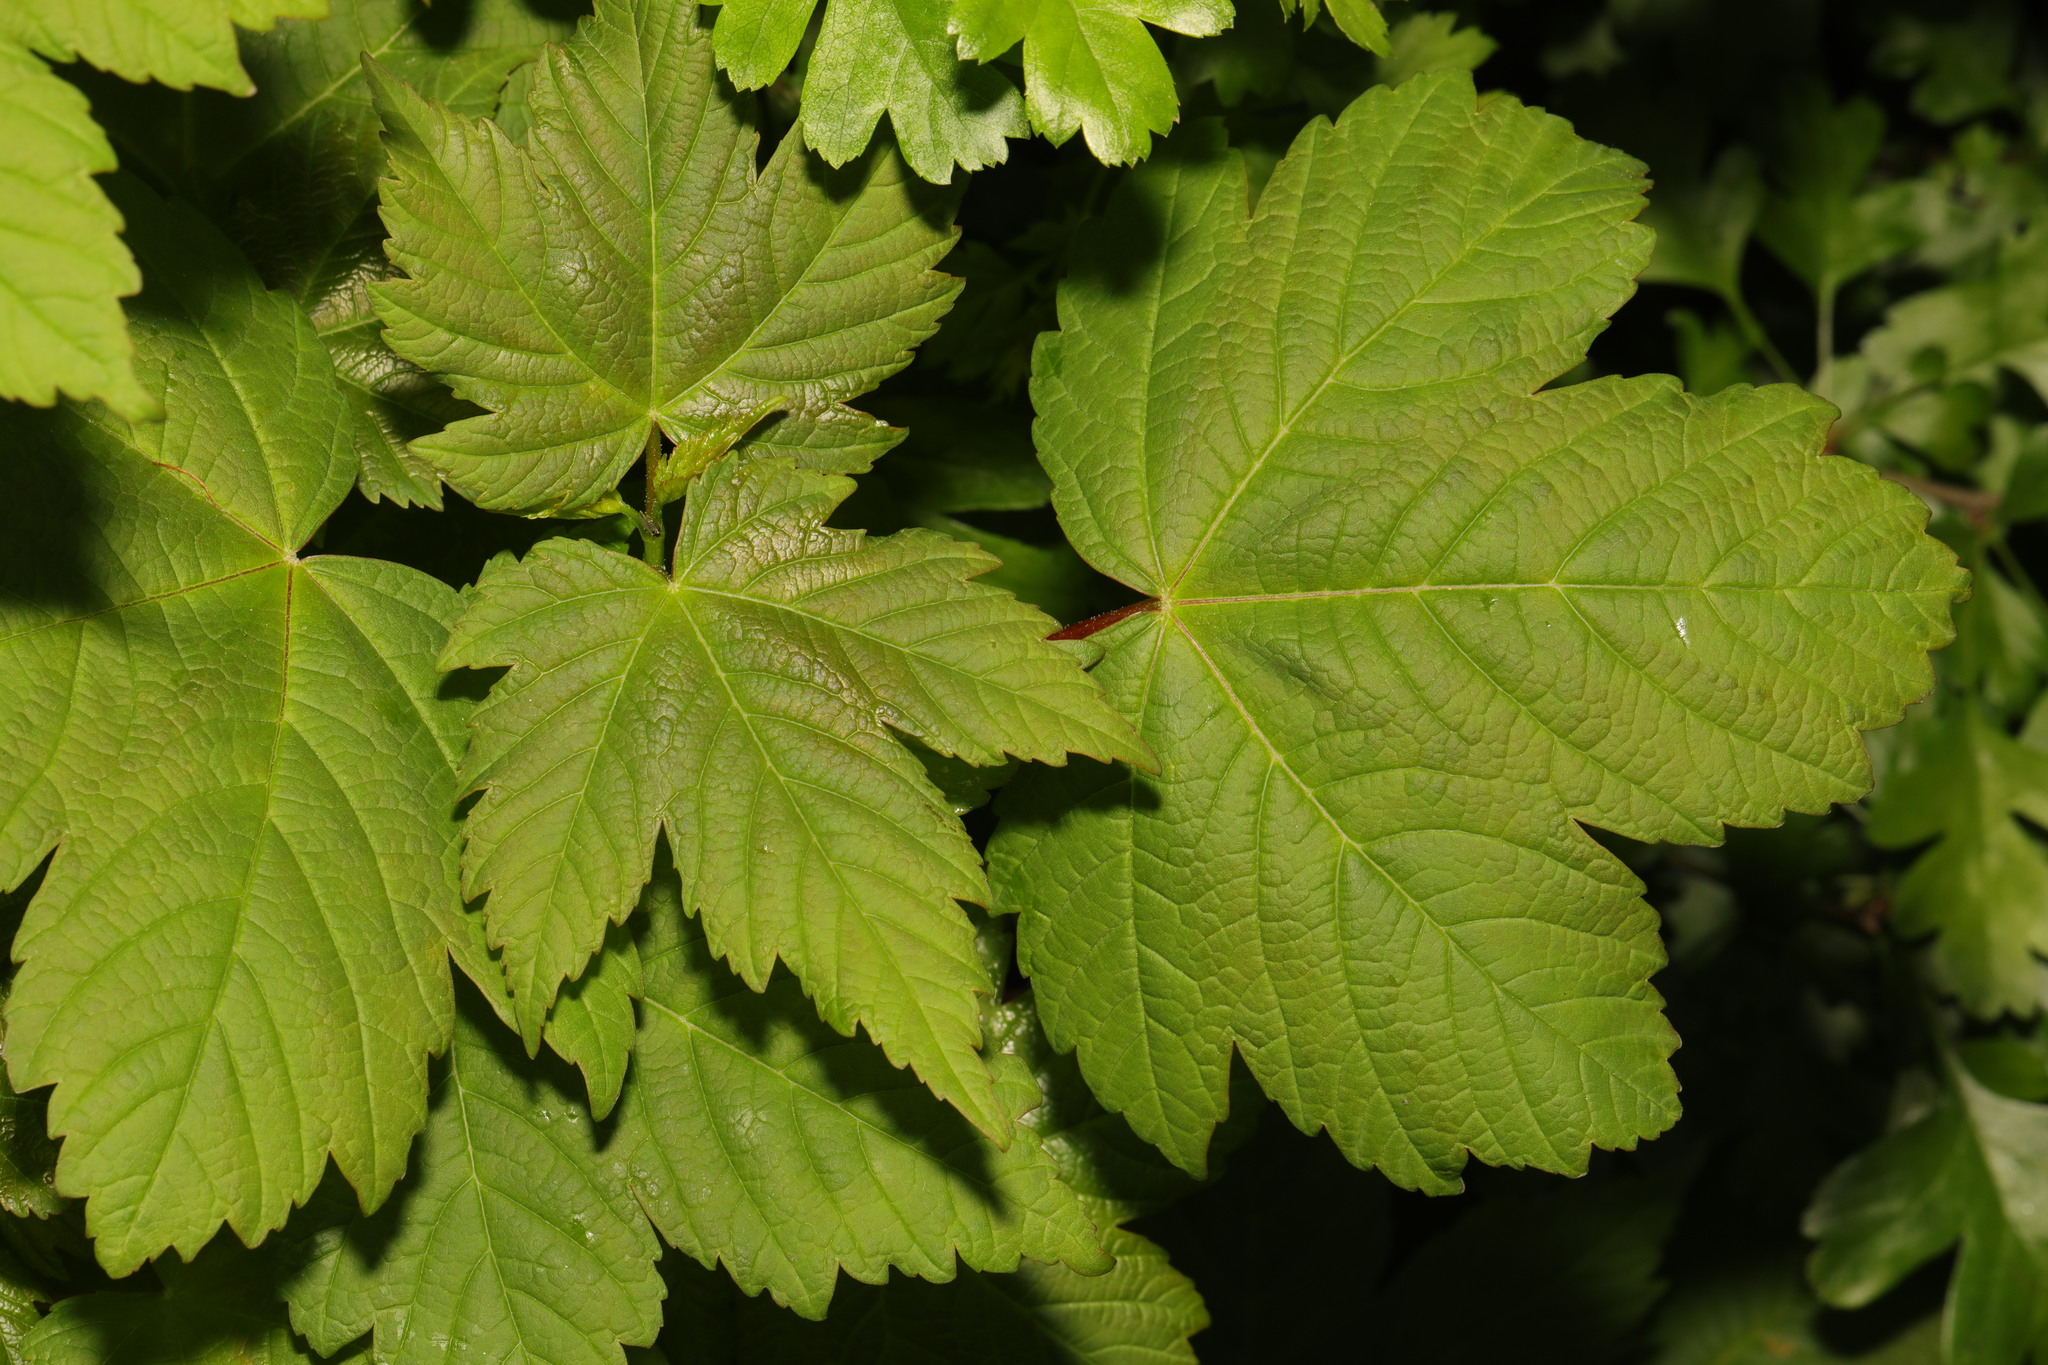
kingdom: Plantae
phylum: Tracheophyta
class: Magnoliopsida
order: Sapindales
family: Sapindaceae
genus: Acer
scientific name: Acer pseudoplatanus
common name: Sycamore
